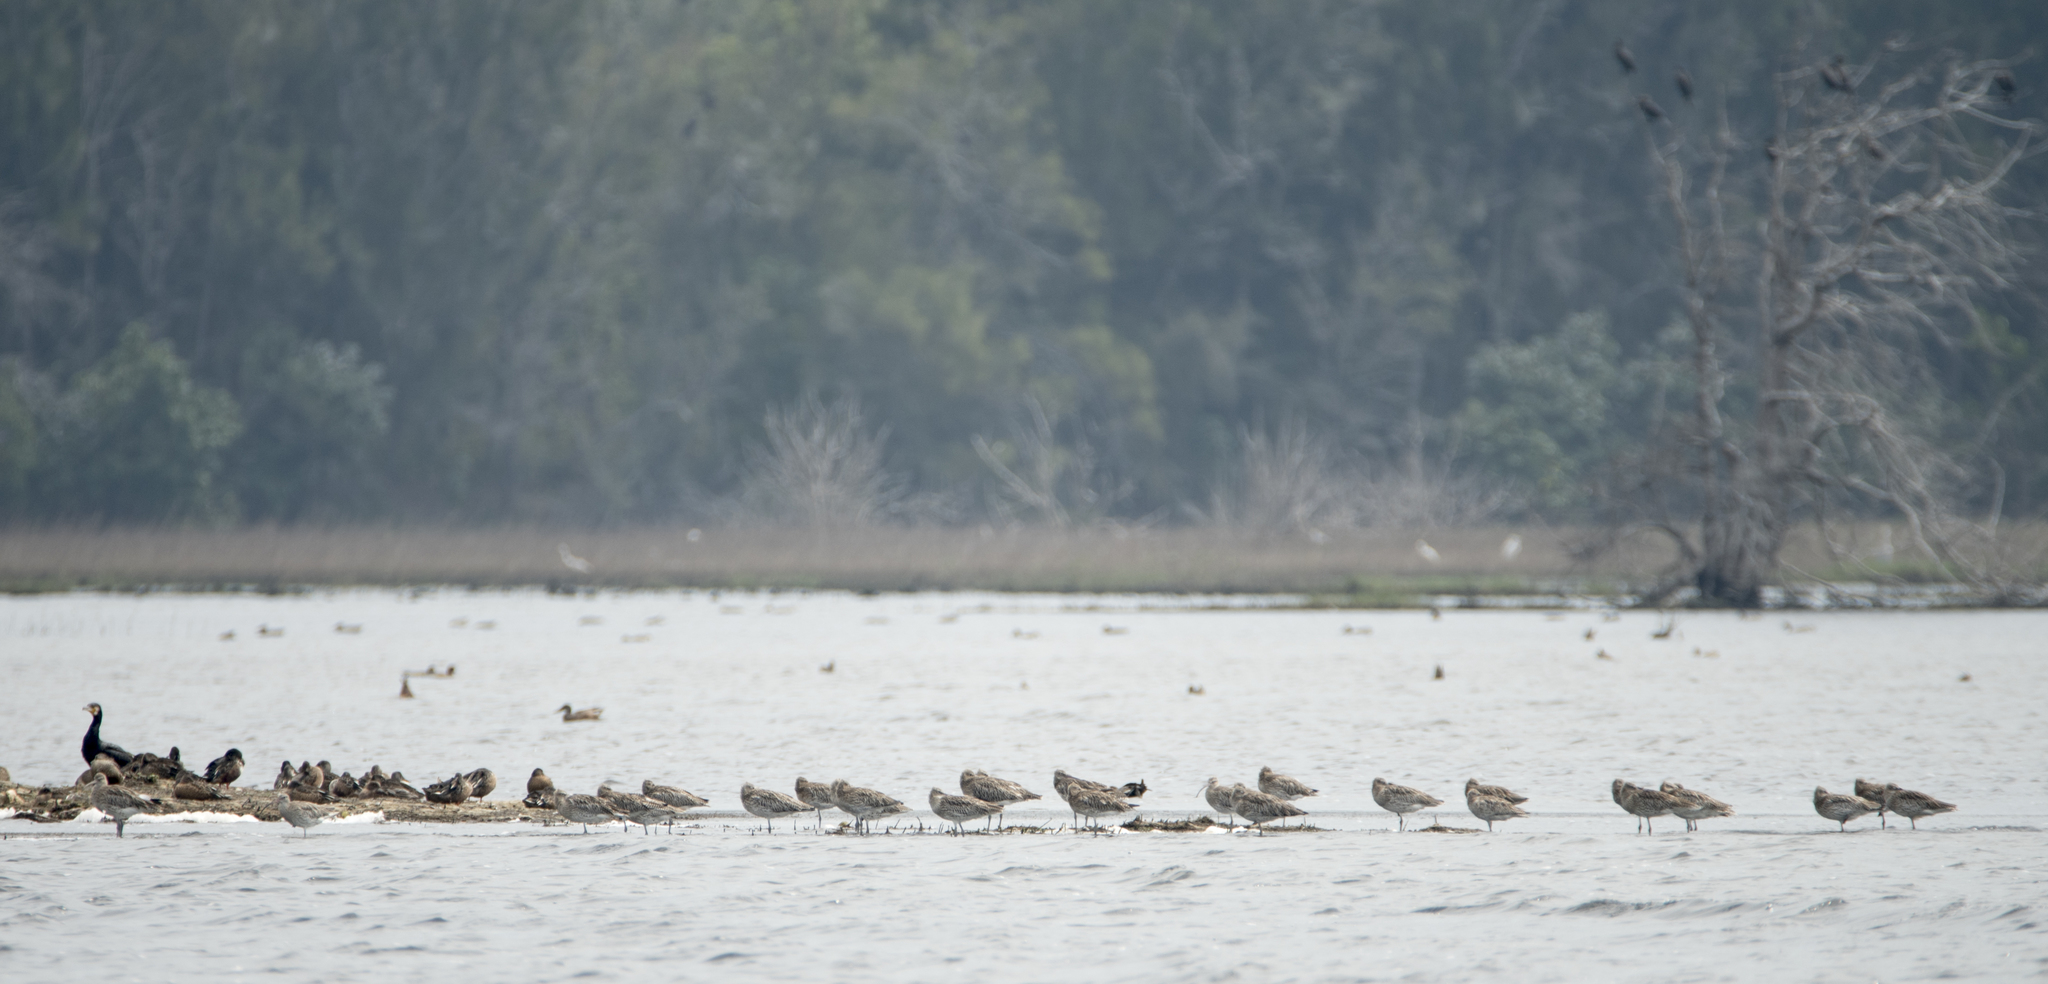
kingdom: Animalia
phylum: Chordata
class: Aves
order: Charadriiformes
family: Scolopacidae
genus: Numenius
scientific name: Numenius arquata
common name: Eurasian curlew
